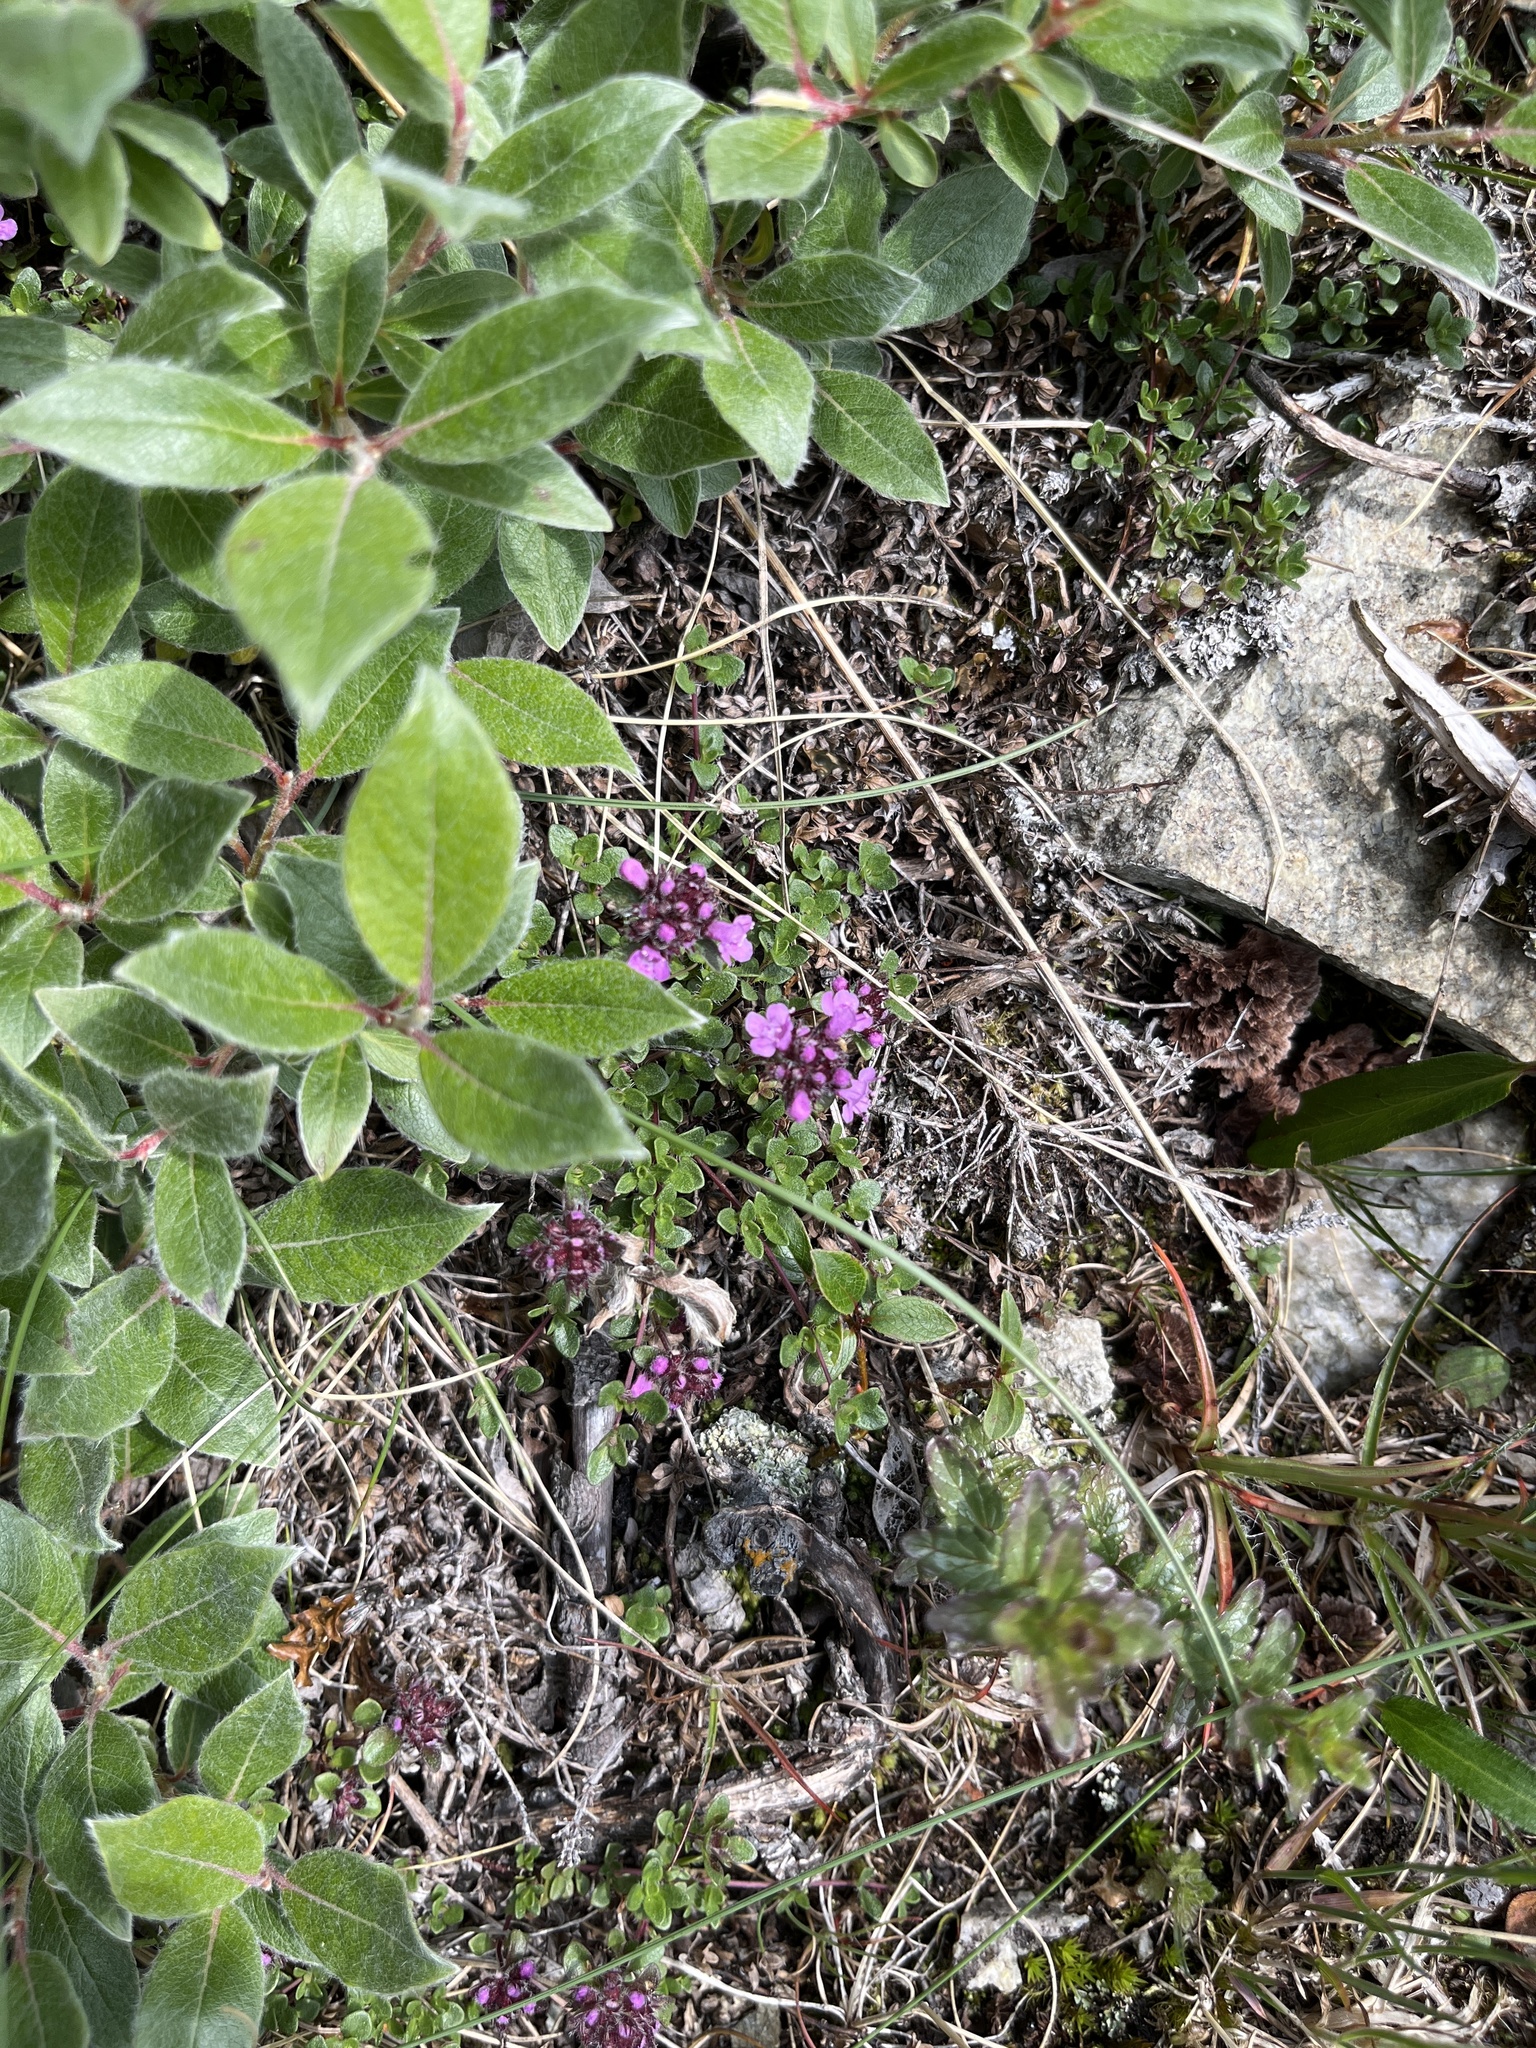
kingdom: Plantae
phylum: Tracheophyta
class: Magnoliopsida
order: Lamiales
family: Lamiaceae
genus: Thymus
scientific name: Thymus praecox
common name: Wild thyme
